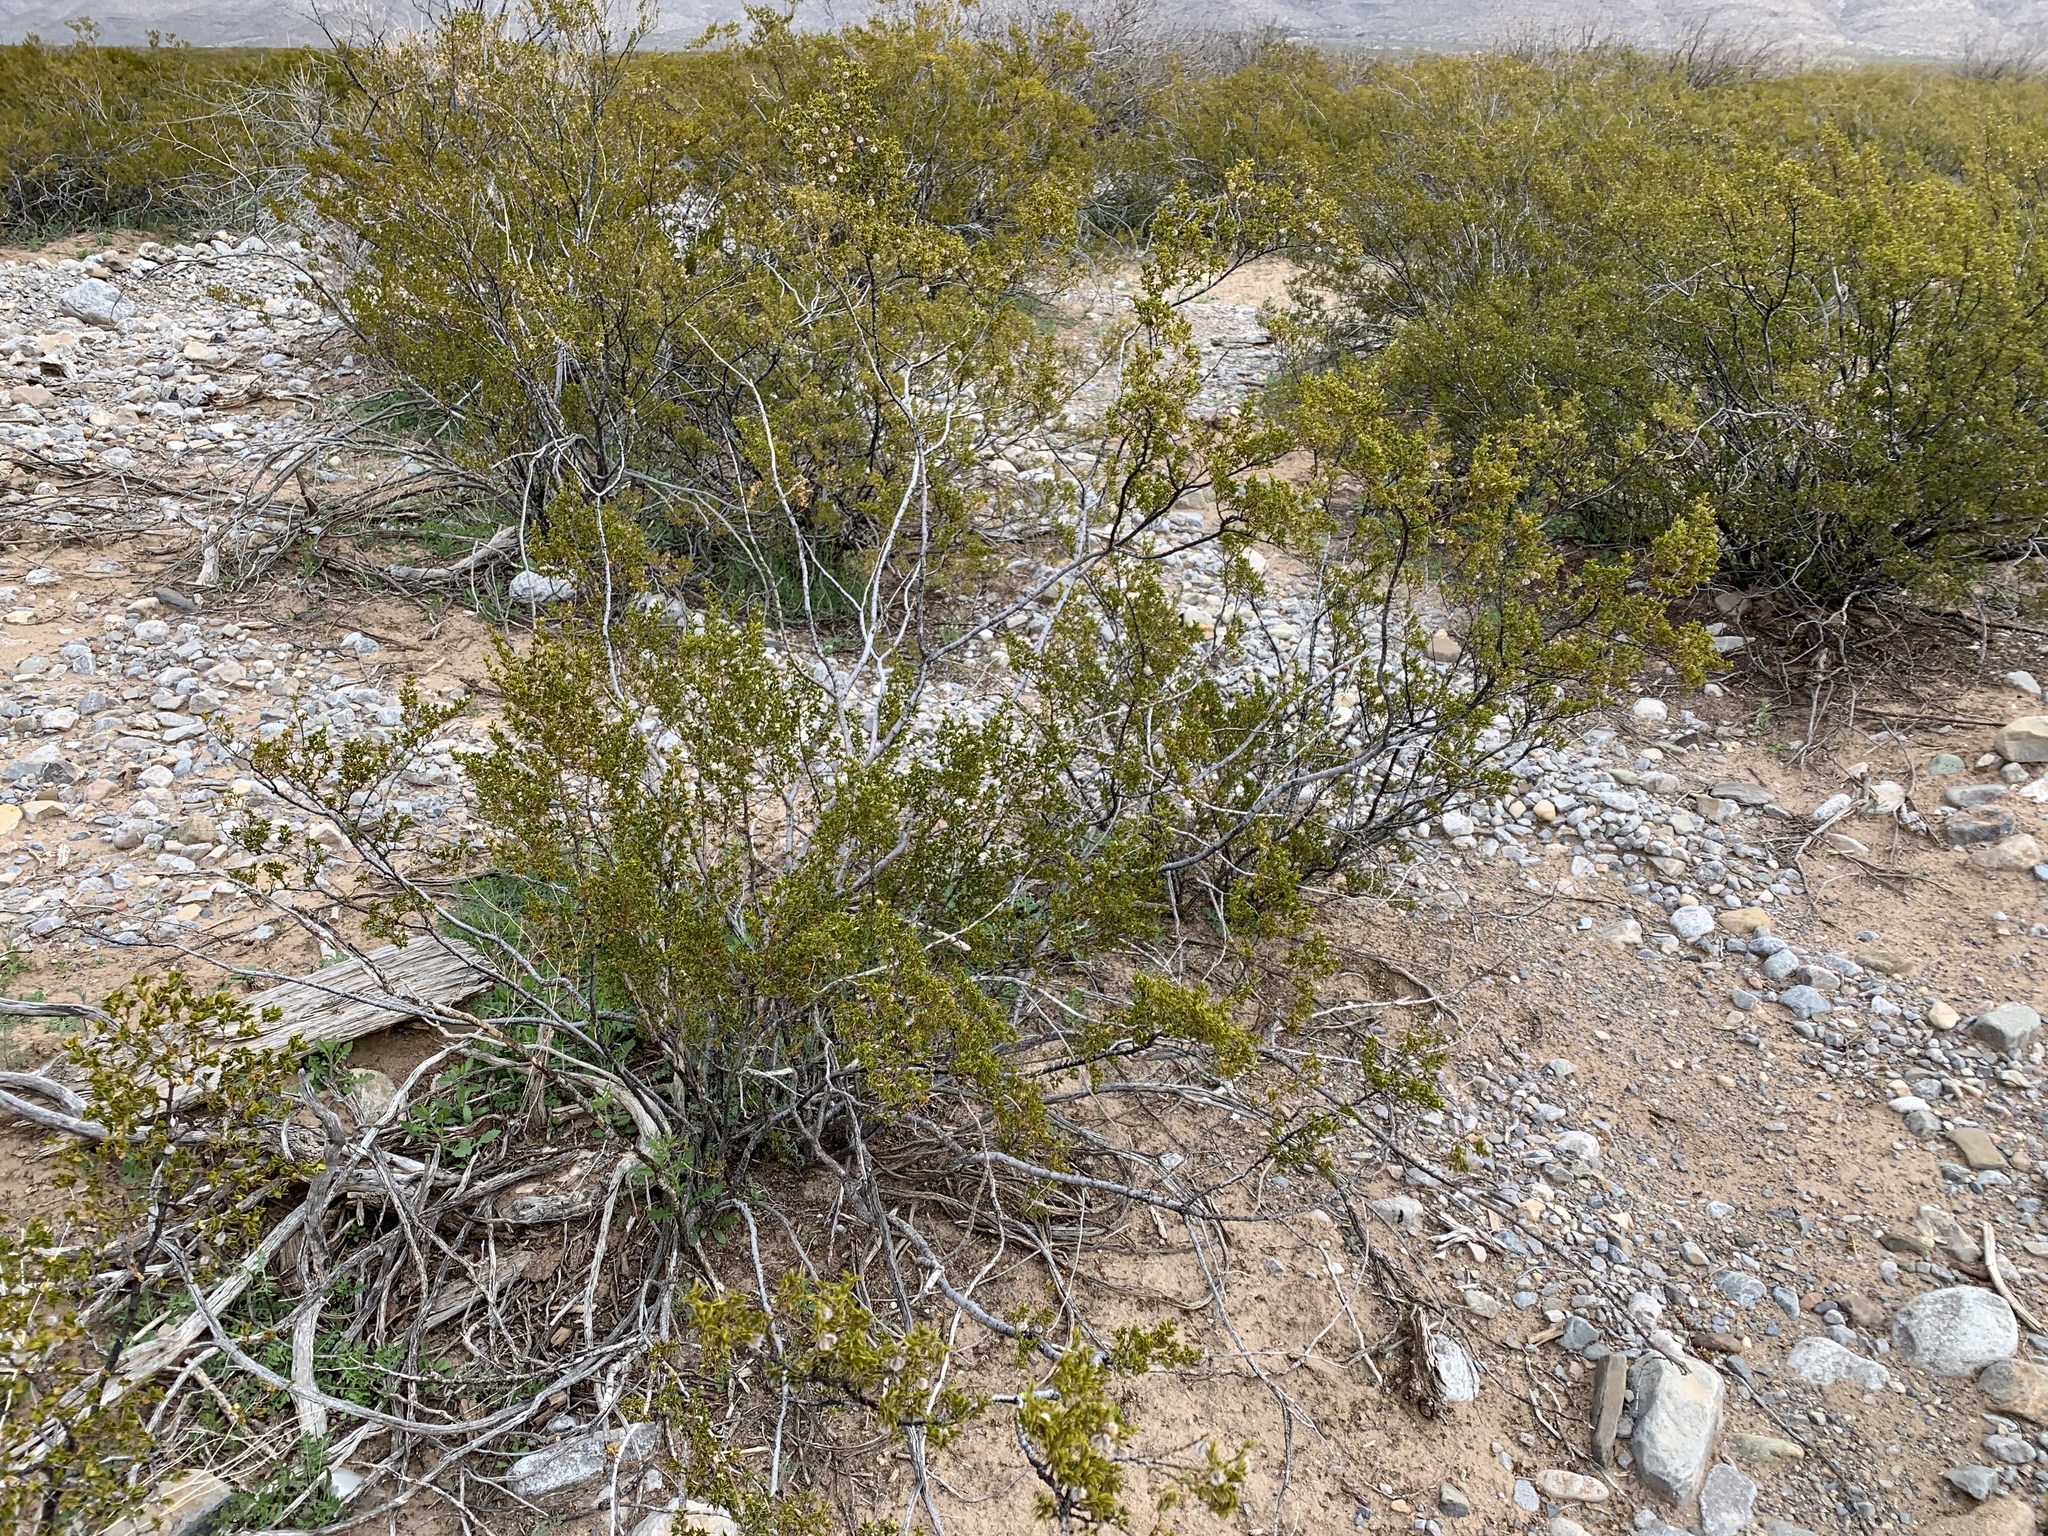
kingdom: Plantae
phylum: Tracheophyta
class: Magnoliopsida
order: Zygophyllales
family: Zygophyllaceae
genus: Larrea
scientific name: Larrea tridentata
